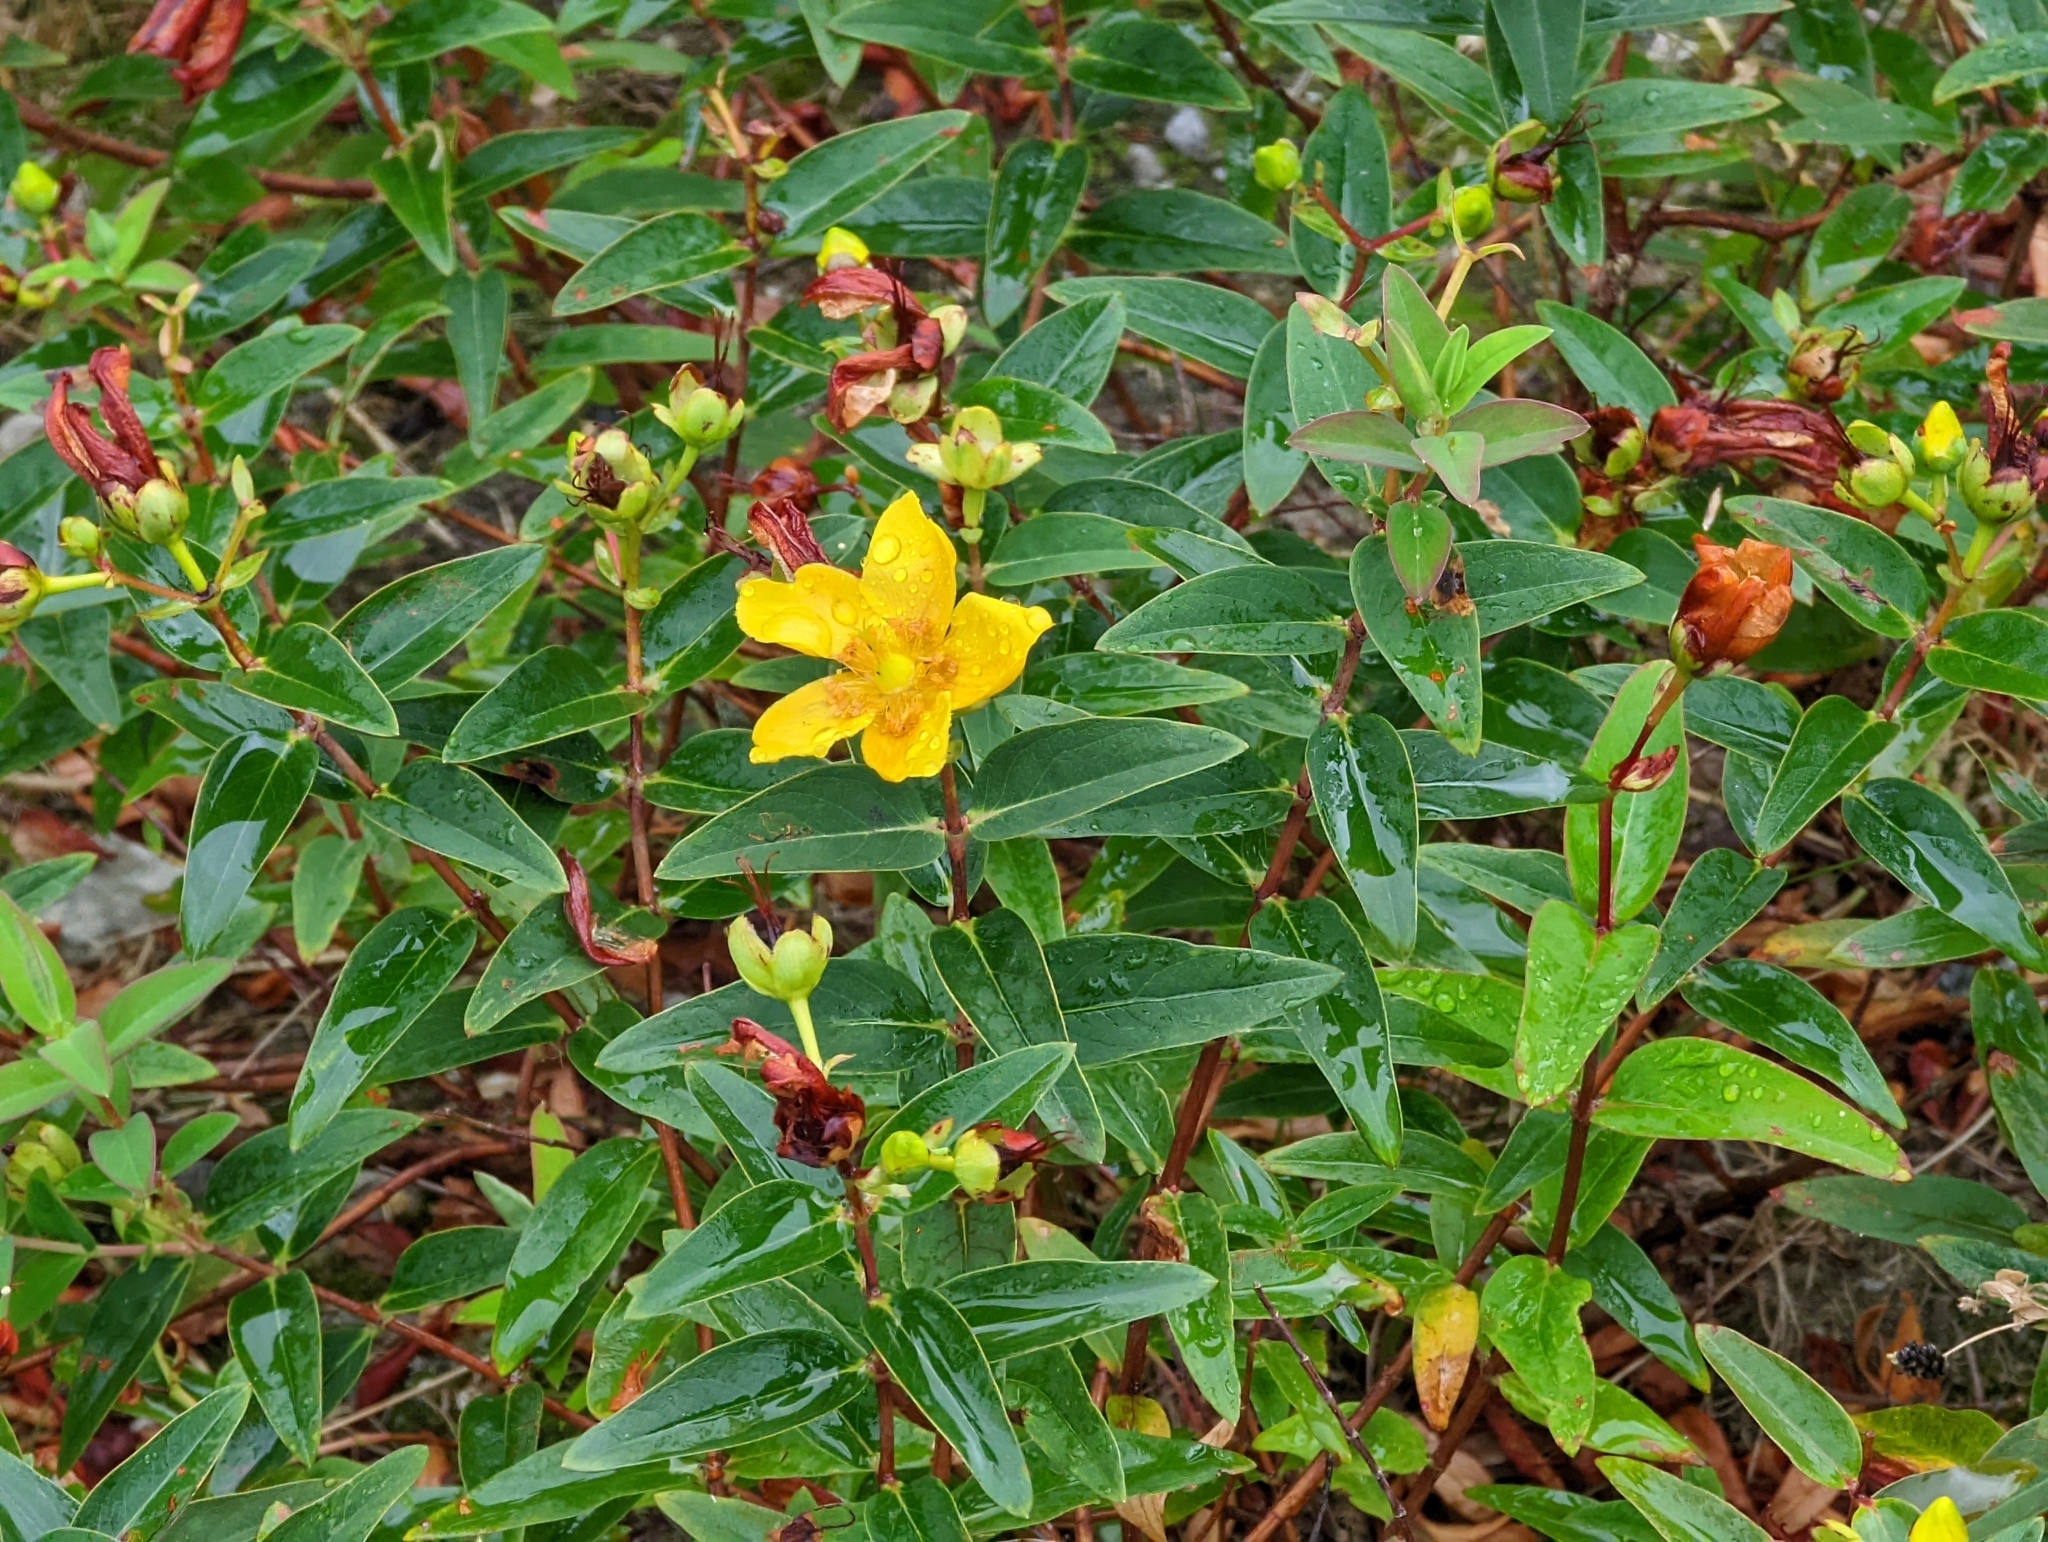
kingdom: Plantae
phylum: Tracheophyta
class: Magnoliopsida
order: Malpighiales
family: Hypericaceae
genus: Hypericum
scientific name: Hypericum calycinum
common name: Rose-of-sharon
